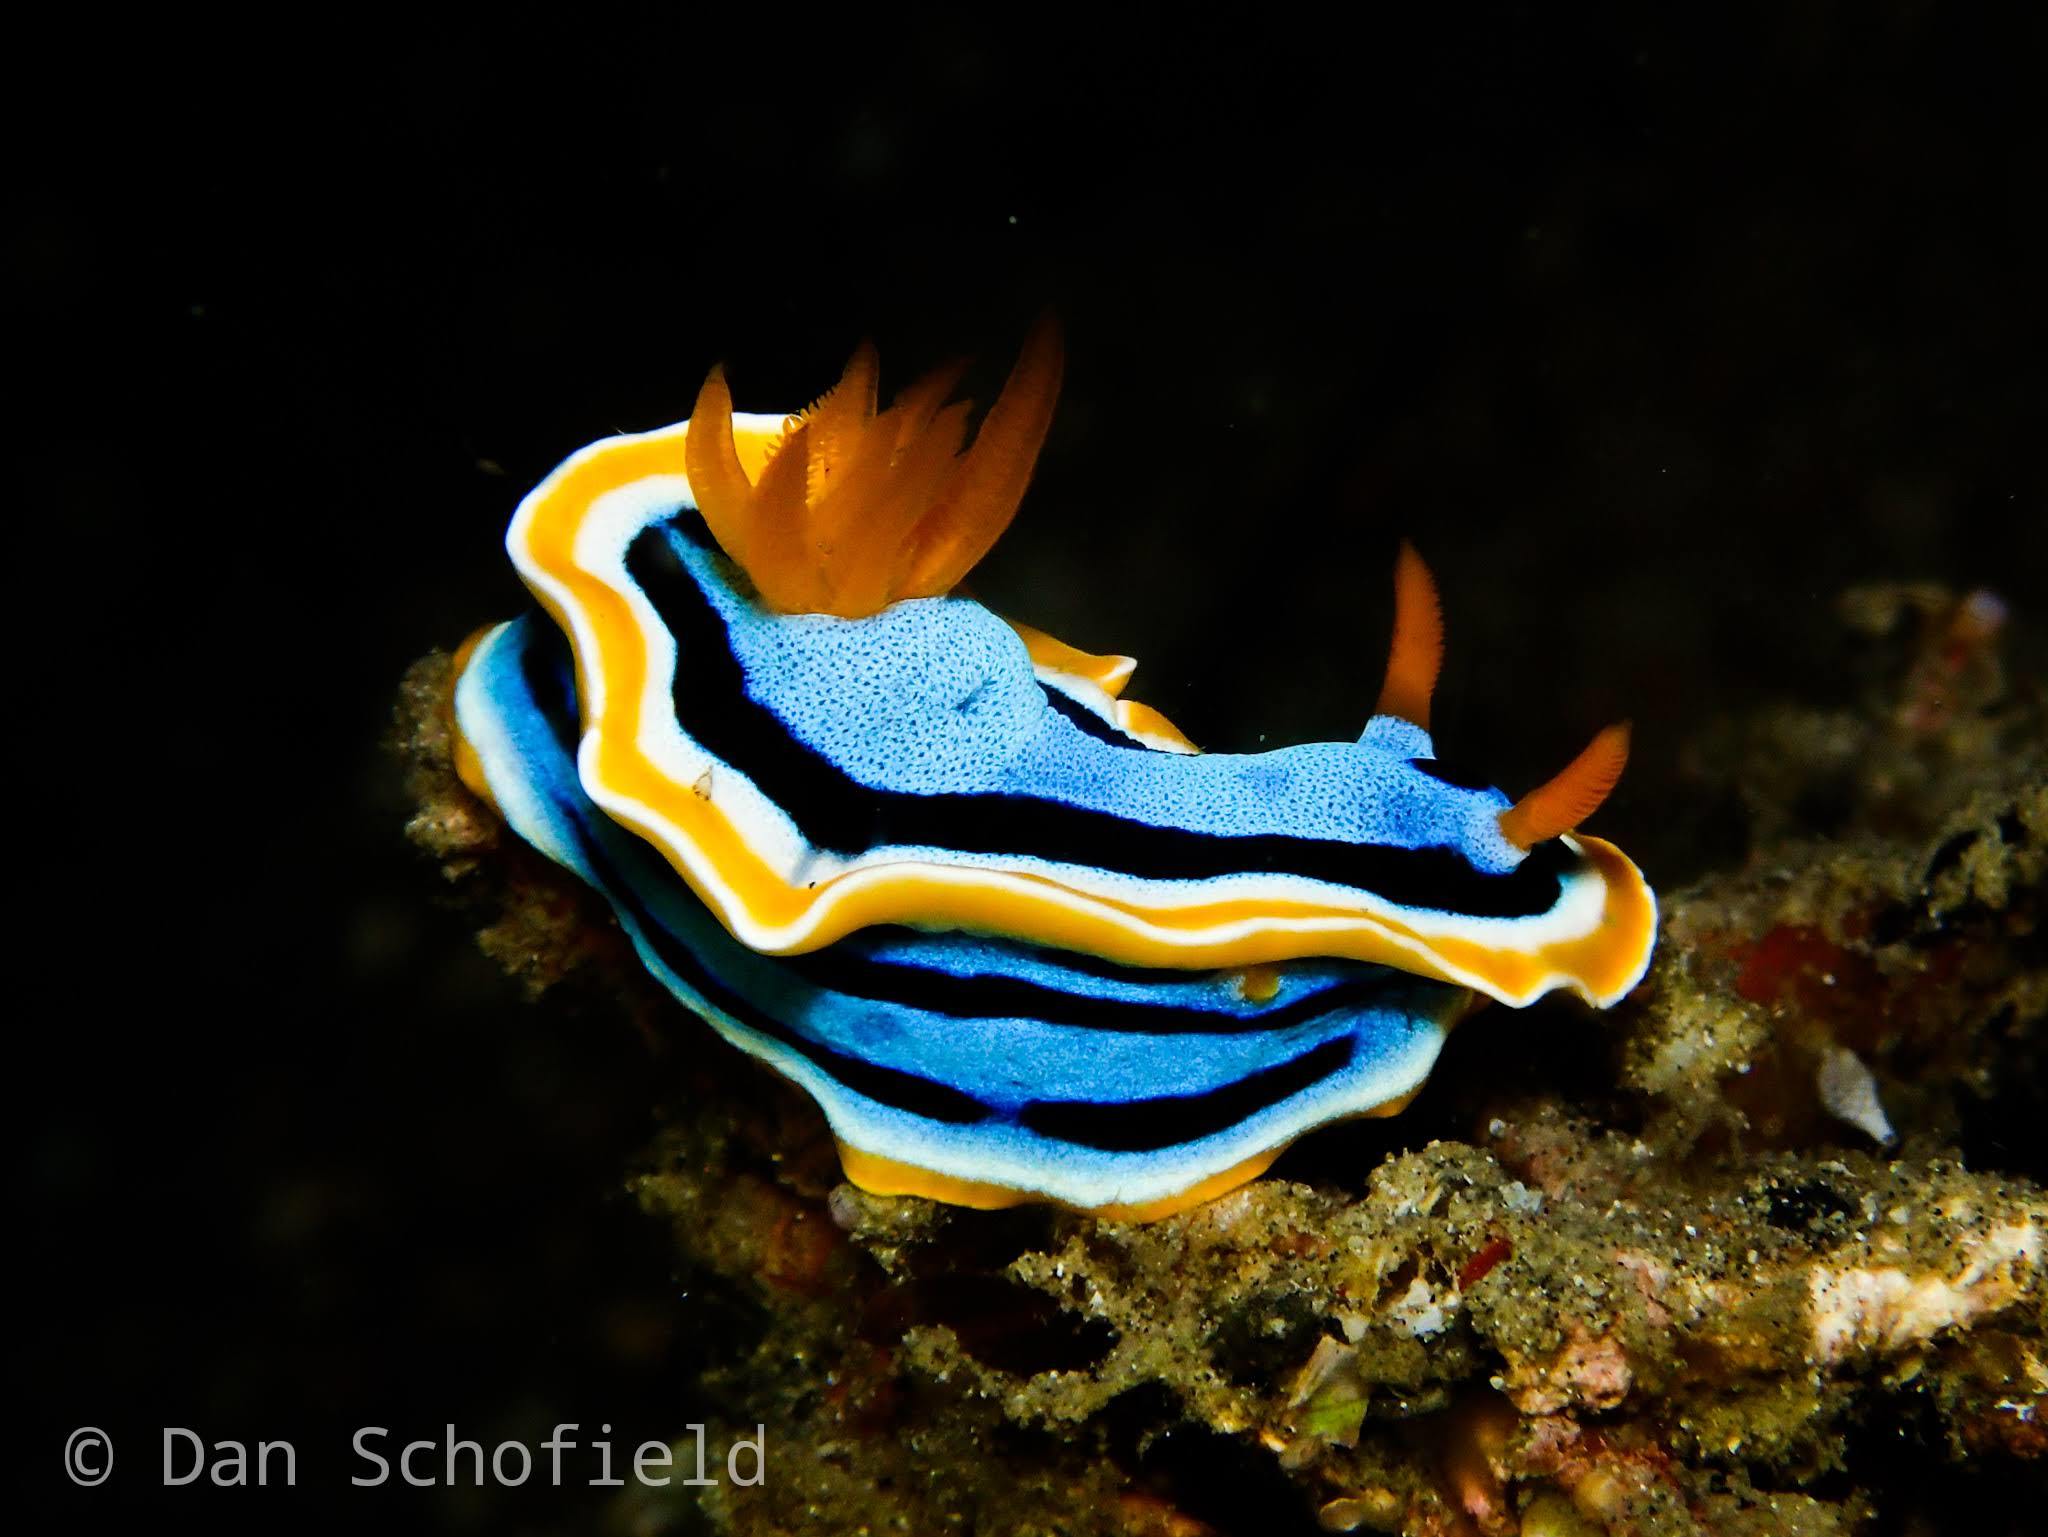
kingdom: Animalia
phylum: Mollusca
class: Gastropoda
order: Nudibranchia
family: Chromodorididae
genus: Chromodoris
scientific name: Chromodoris annae
